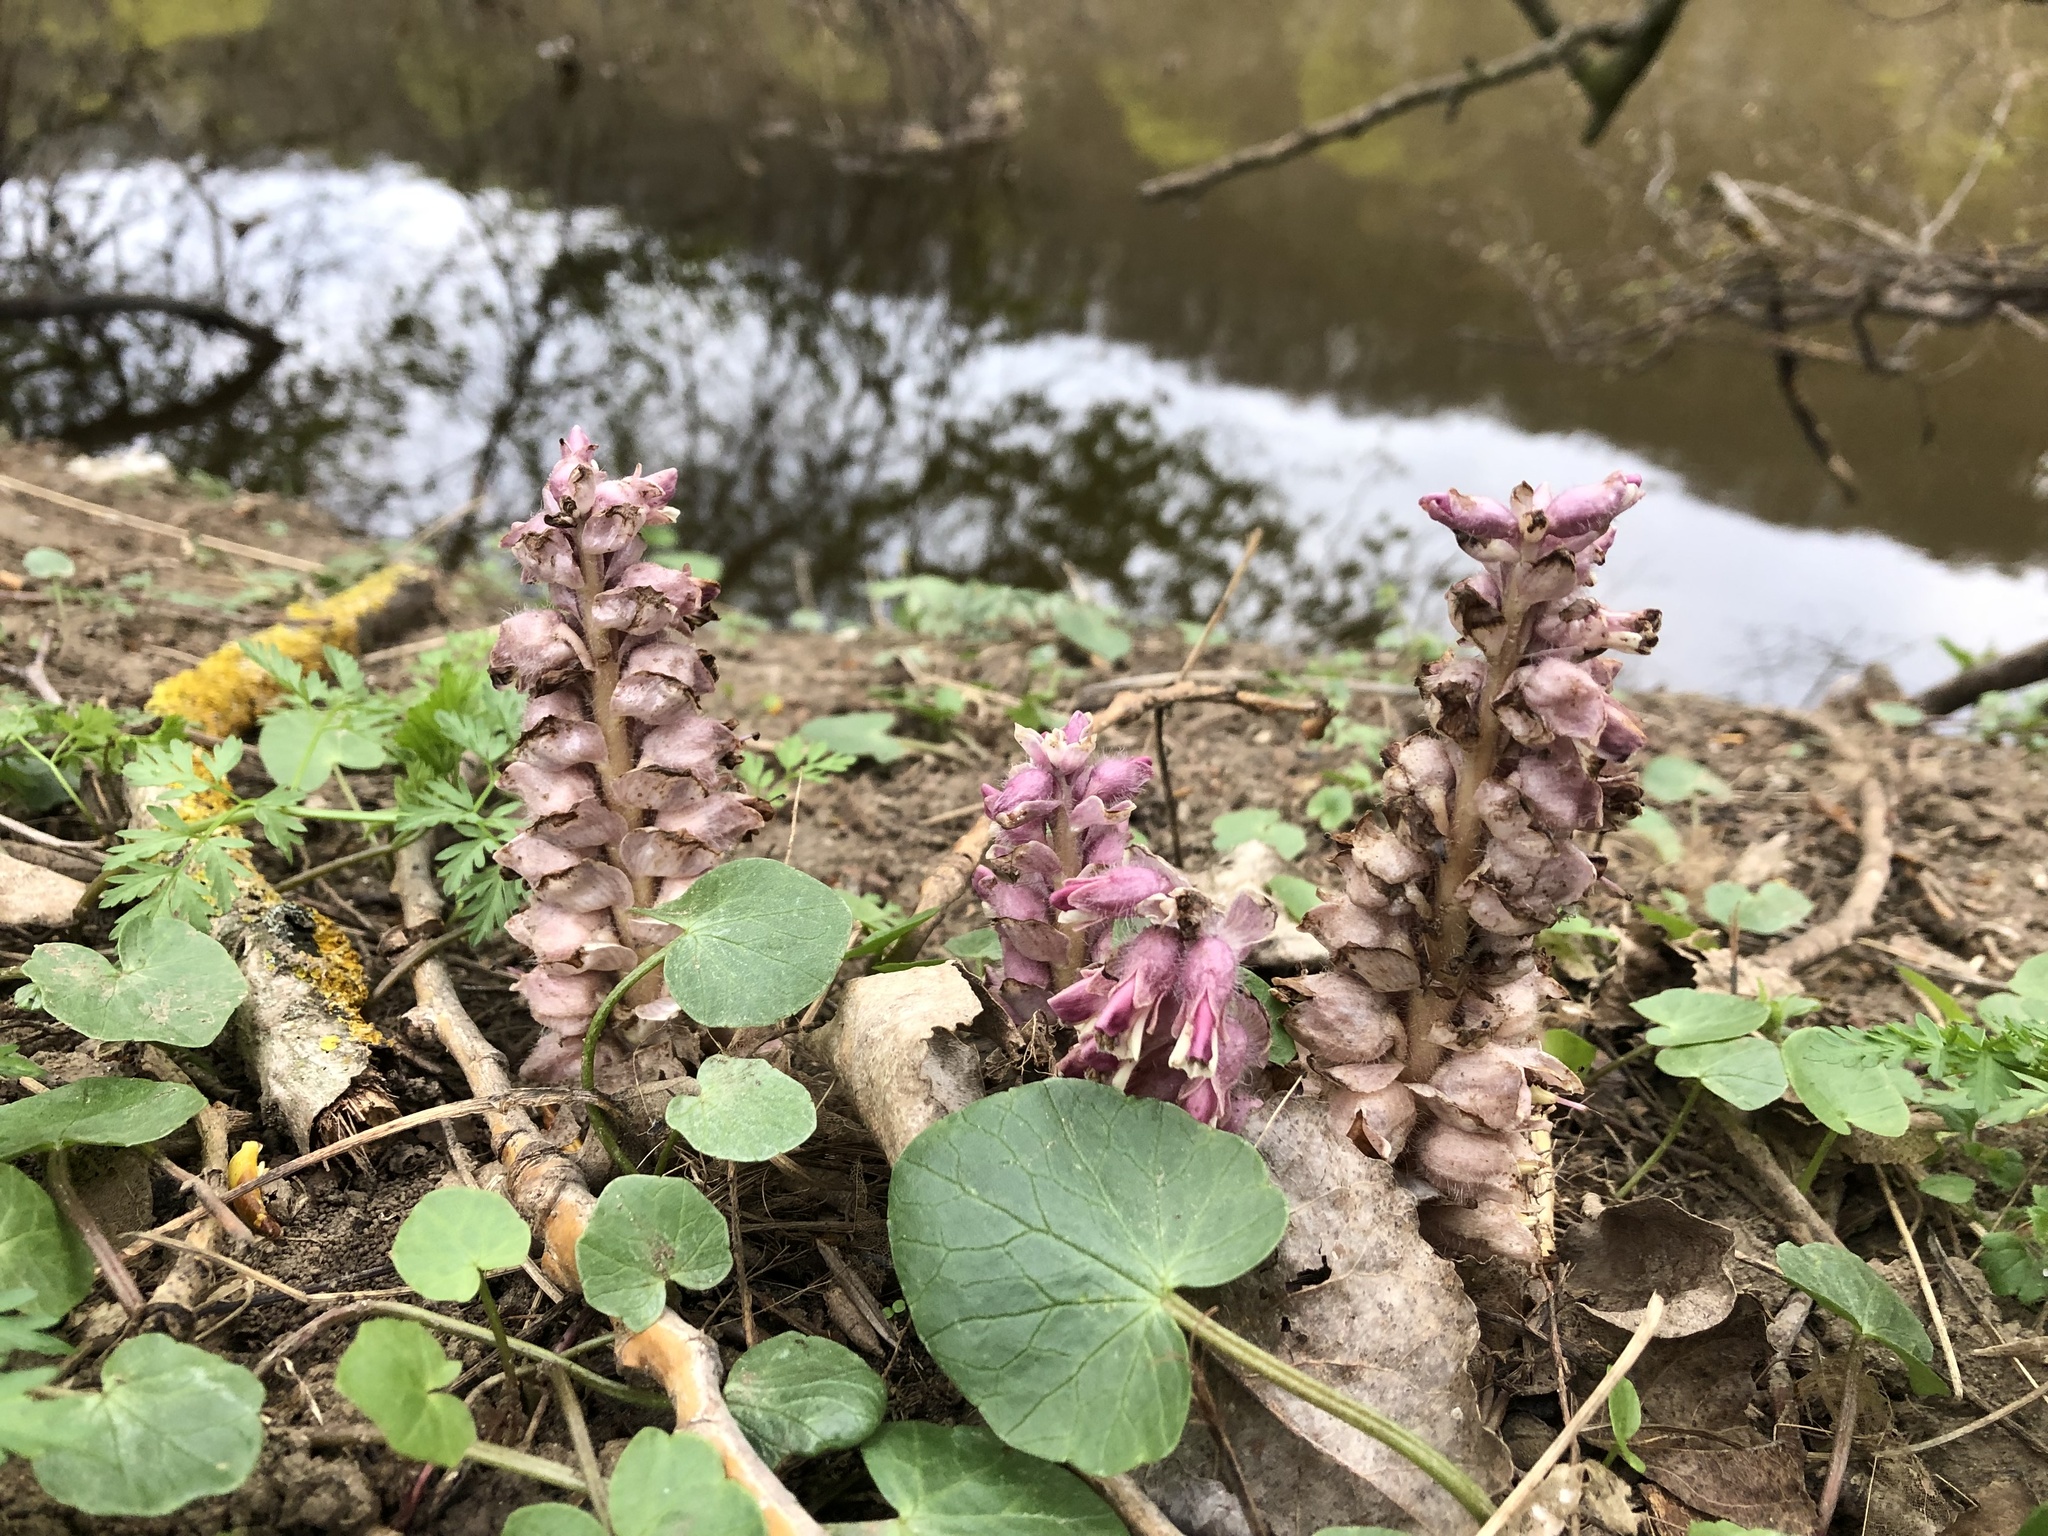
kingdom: Plantae
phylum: Tracheophyta
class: Magnoliopsida
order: Lamiales
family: Orobanchaceae
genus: Lathraea
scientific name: Lathraea squamaria
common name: Toothwort
